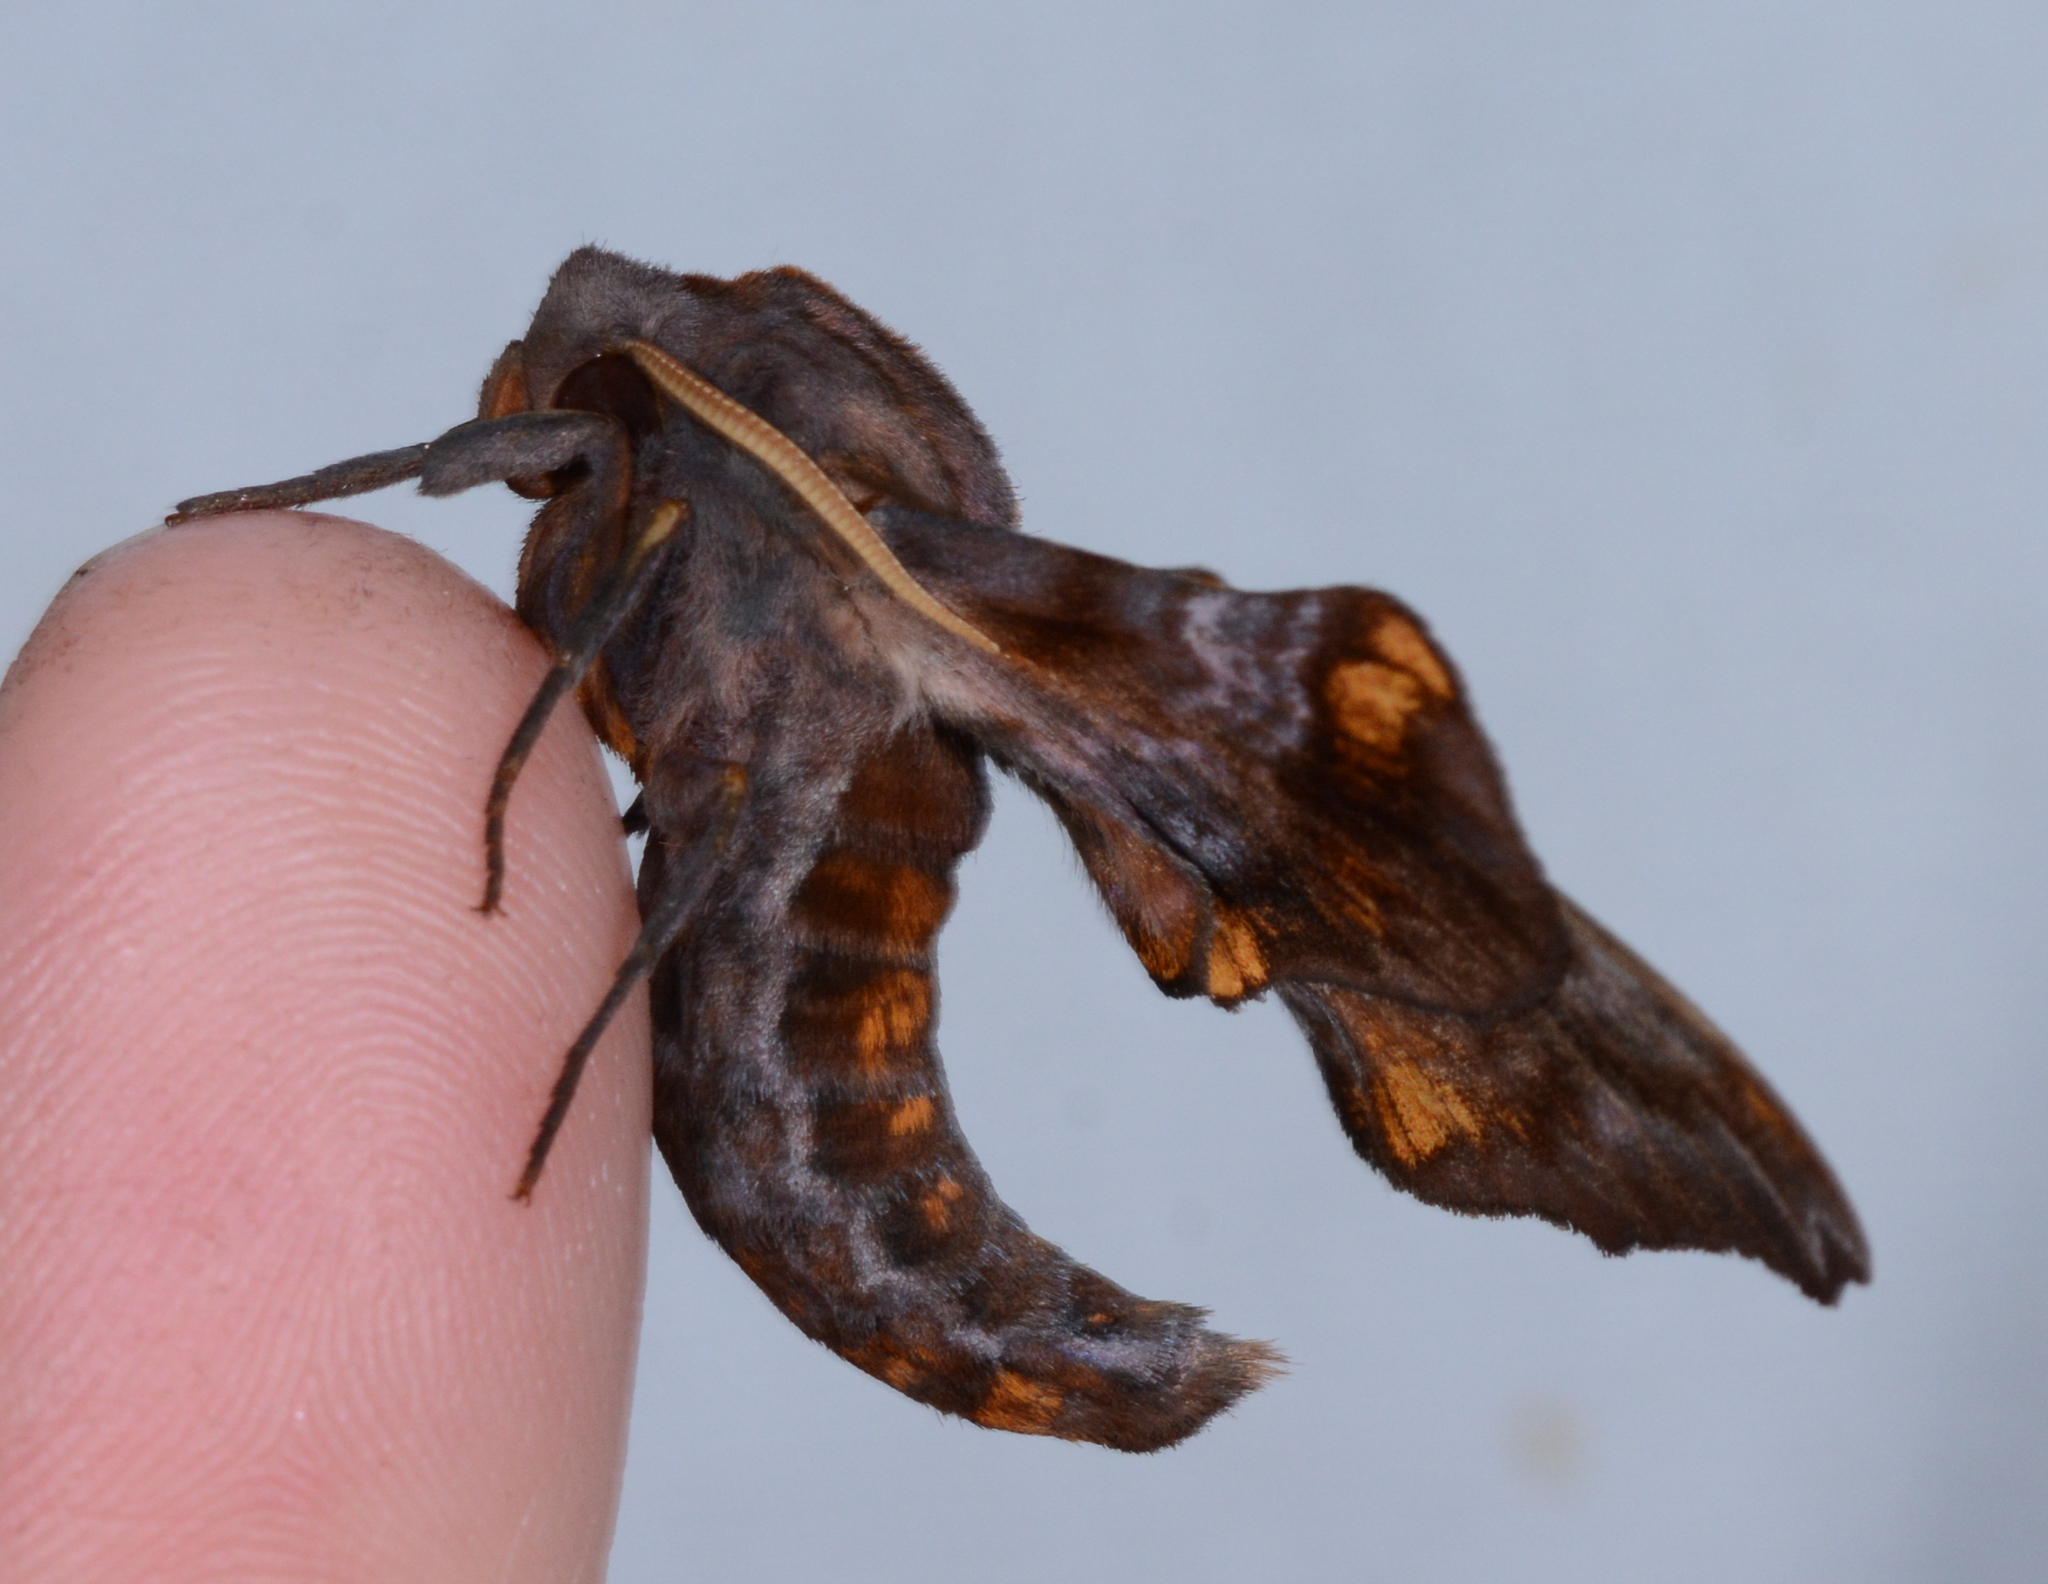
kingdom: Animalia
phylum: Arthropoda
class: Insecta
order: Lepidoptera
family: Sphingidae
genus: Paonias
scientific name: Paonias myops
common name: Small-eyed sphinx
